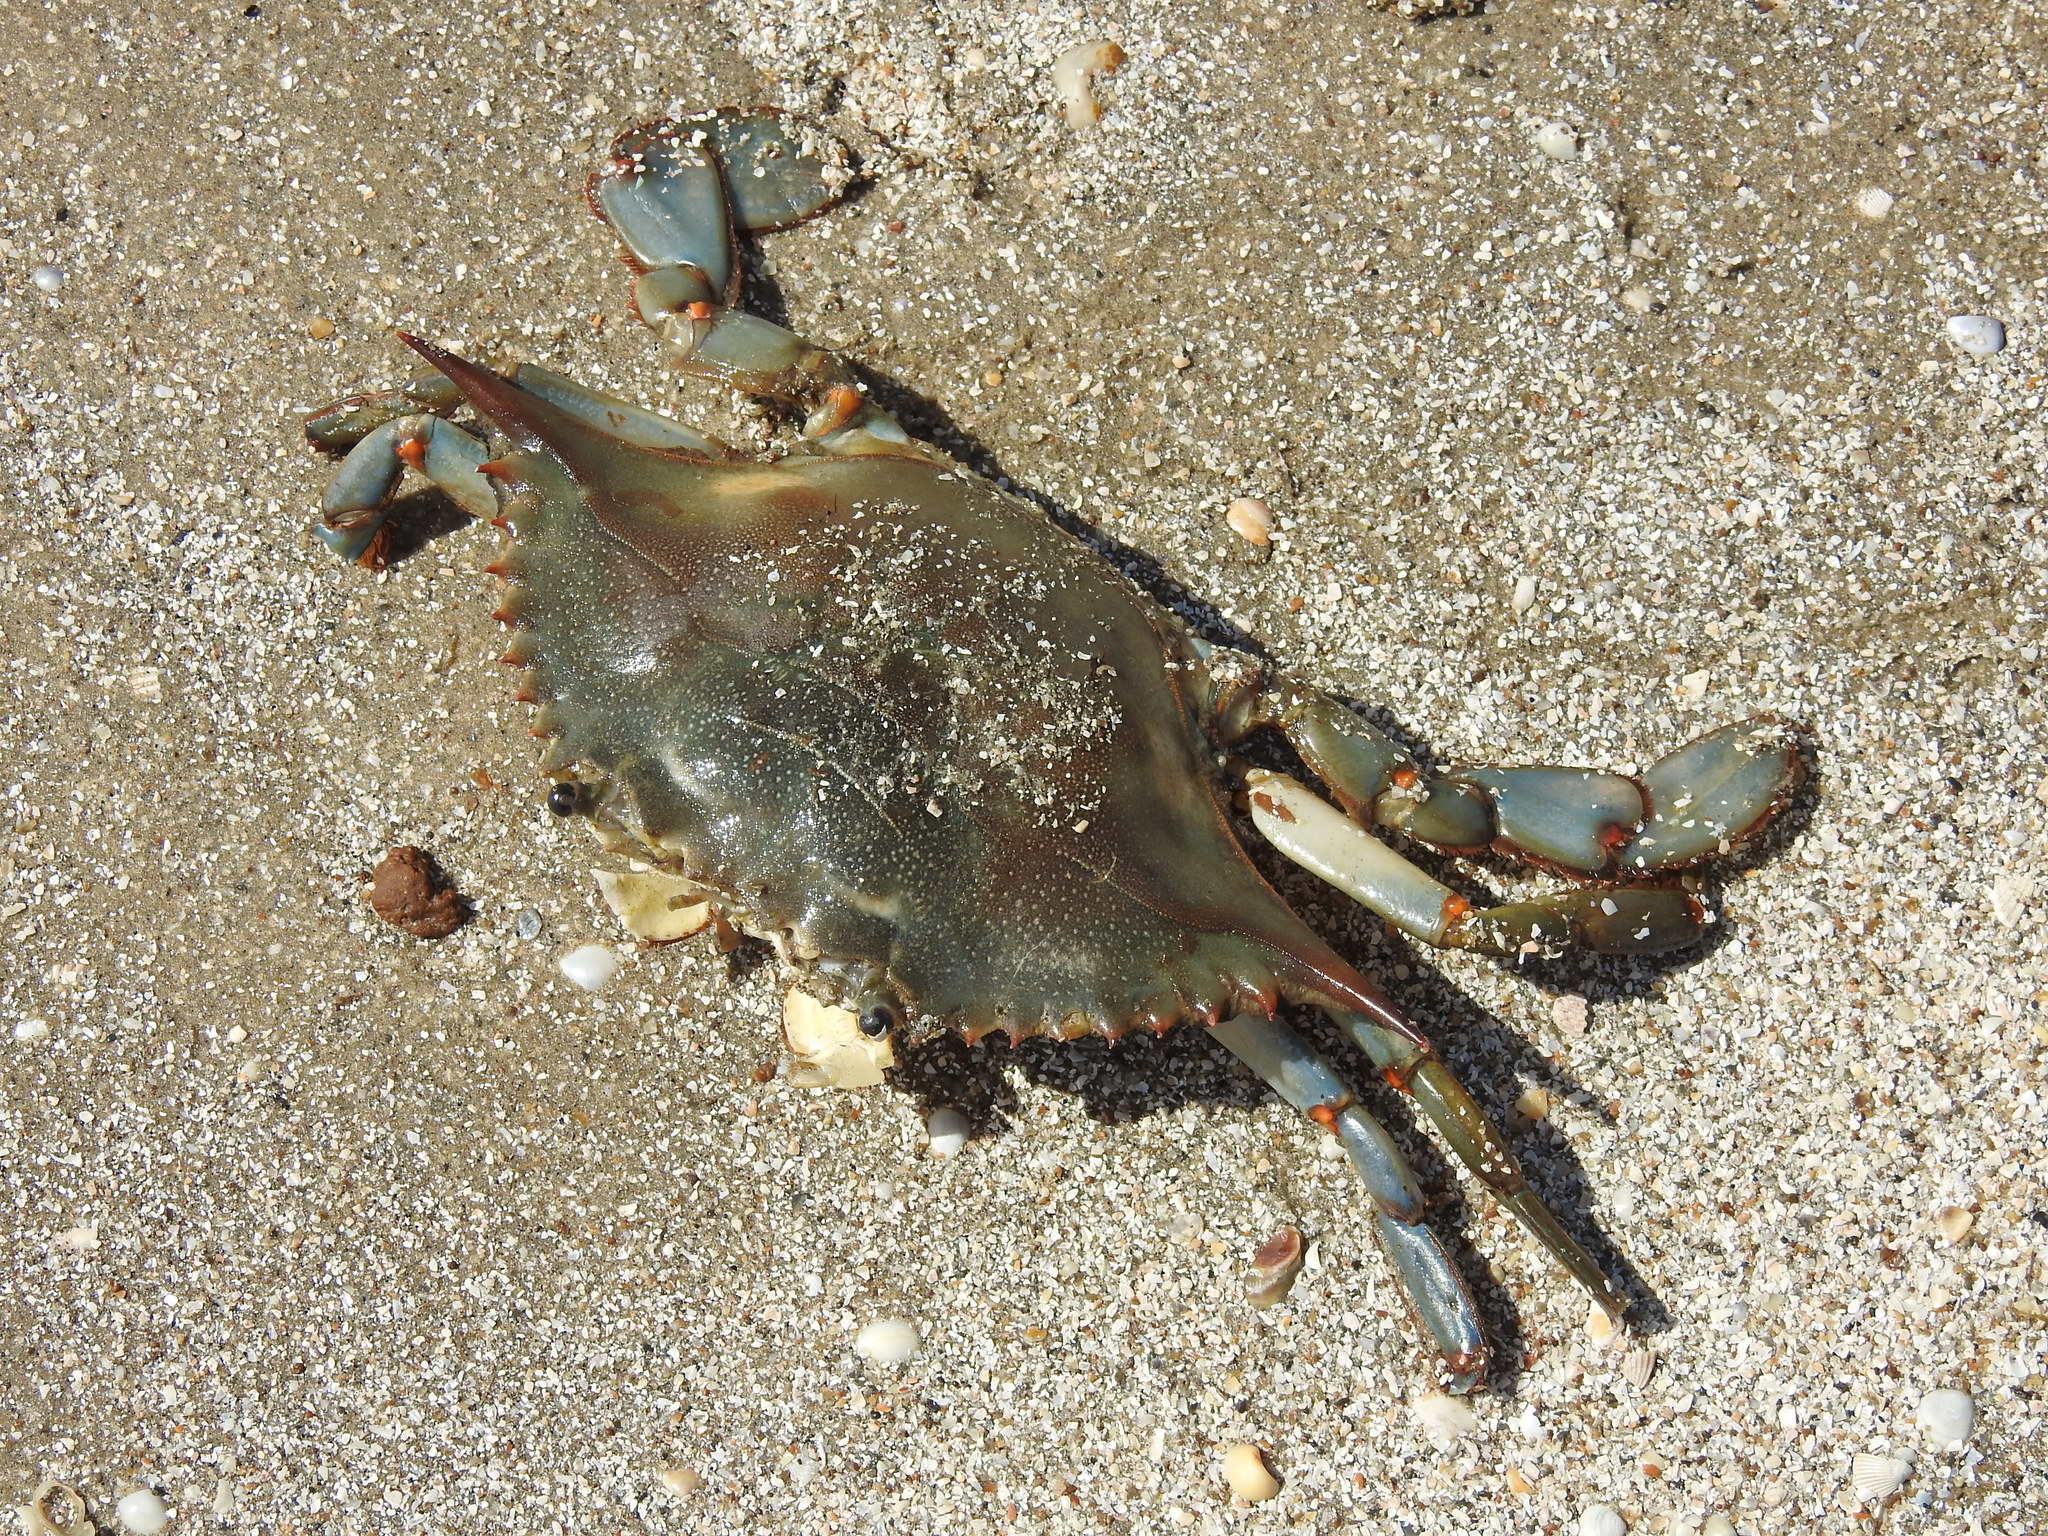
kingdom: Animalia
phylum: Arthropoda
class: Malacostraca
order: Decapoda
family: Portunidae
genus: Callinectes
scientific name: Callinectes sapidus
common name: Blue crab
